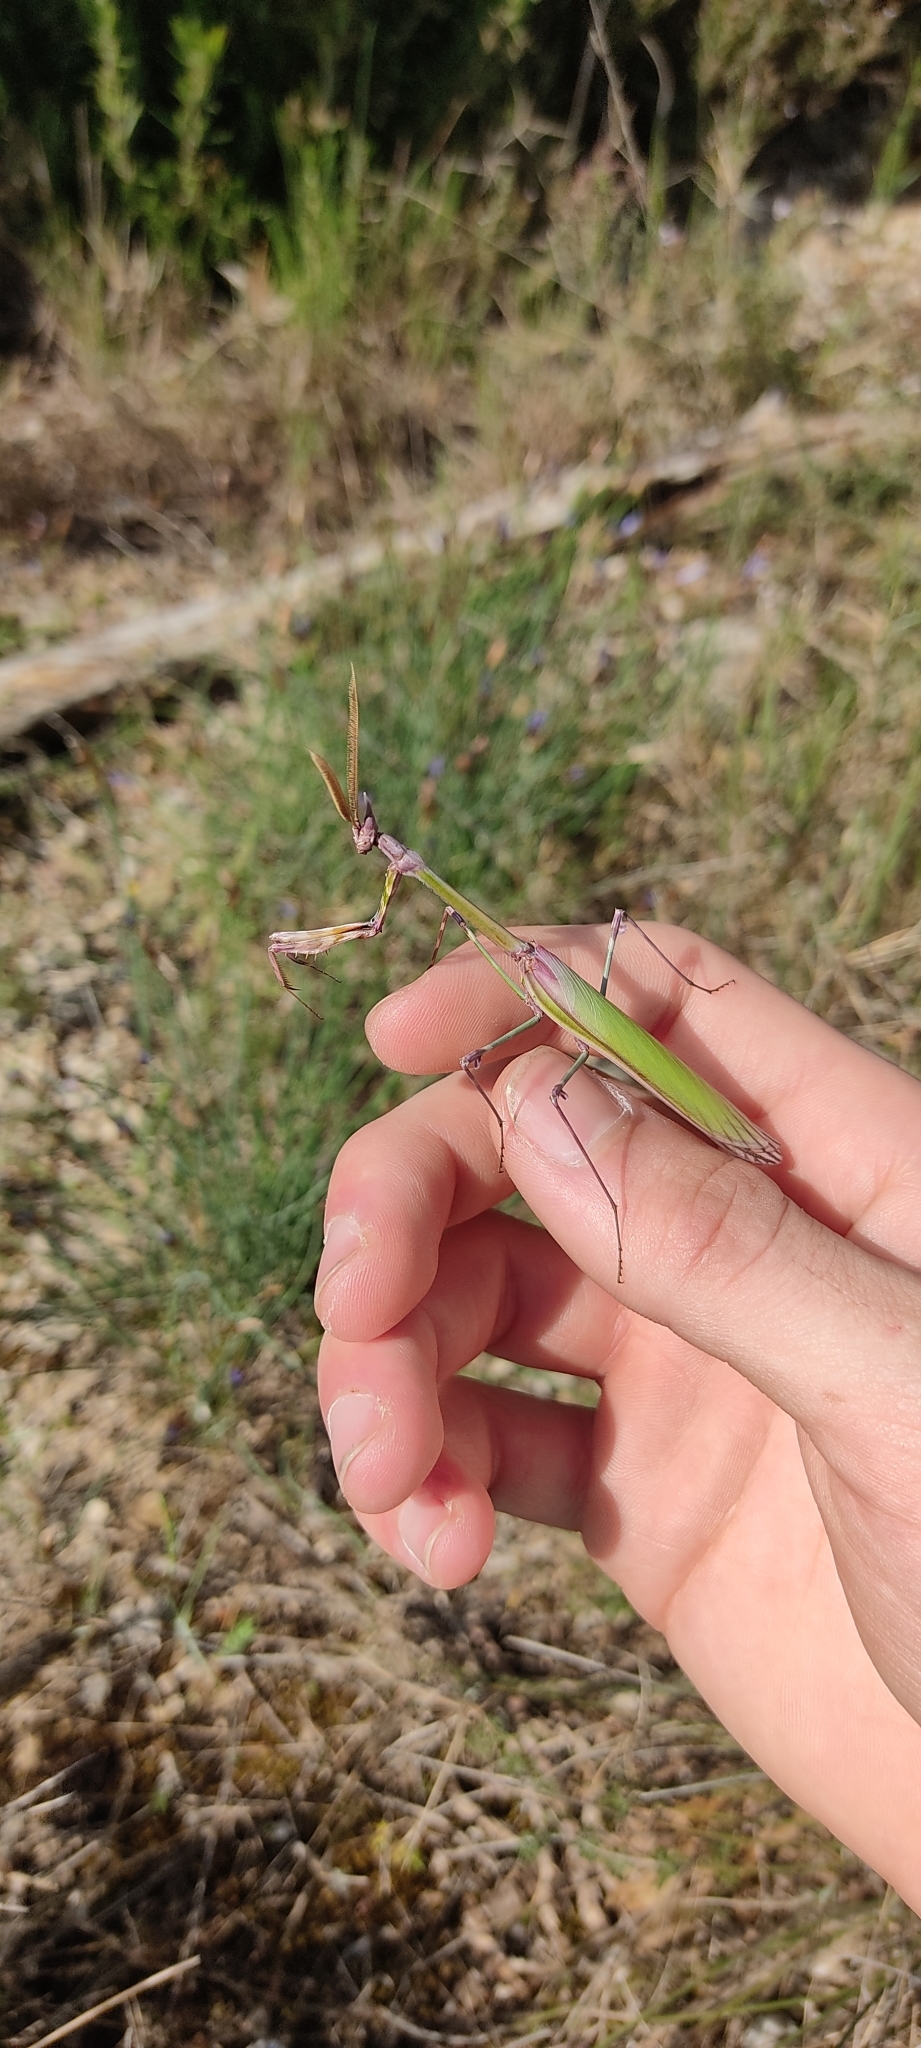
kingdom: Animalia
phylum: Arthropoda
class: Insecta
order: Mantodea
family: Empusidae
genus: Empusa
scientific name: Empusa pennata
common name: Conehead mantis
